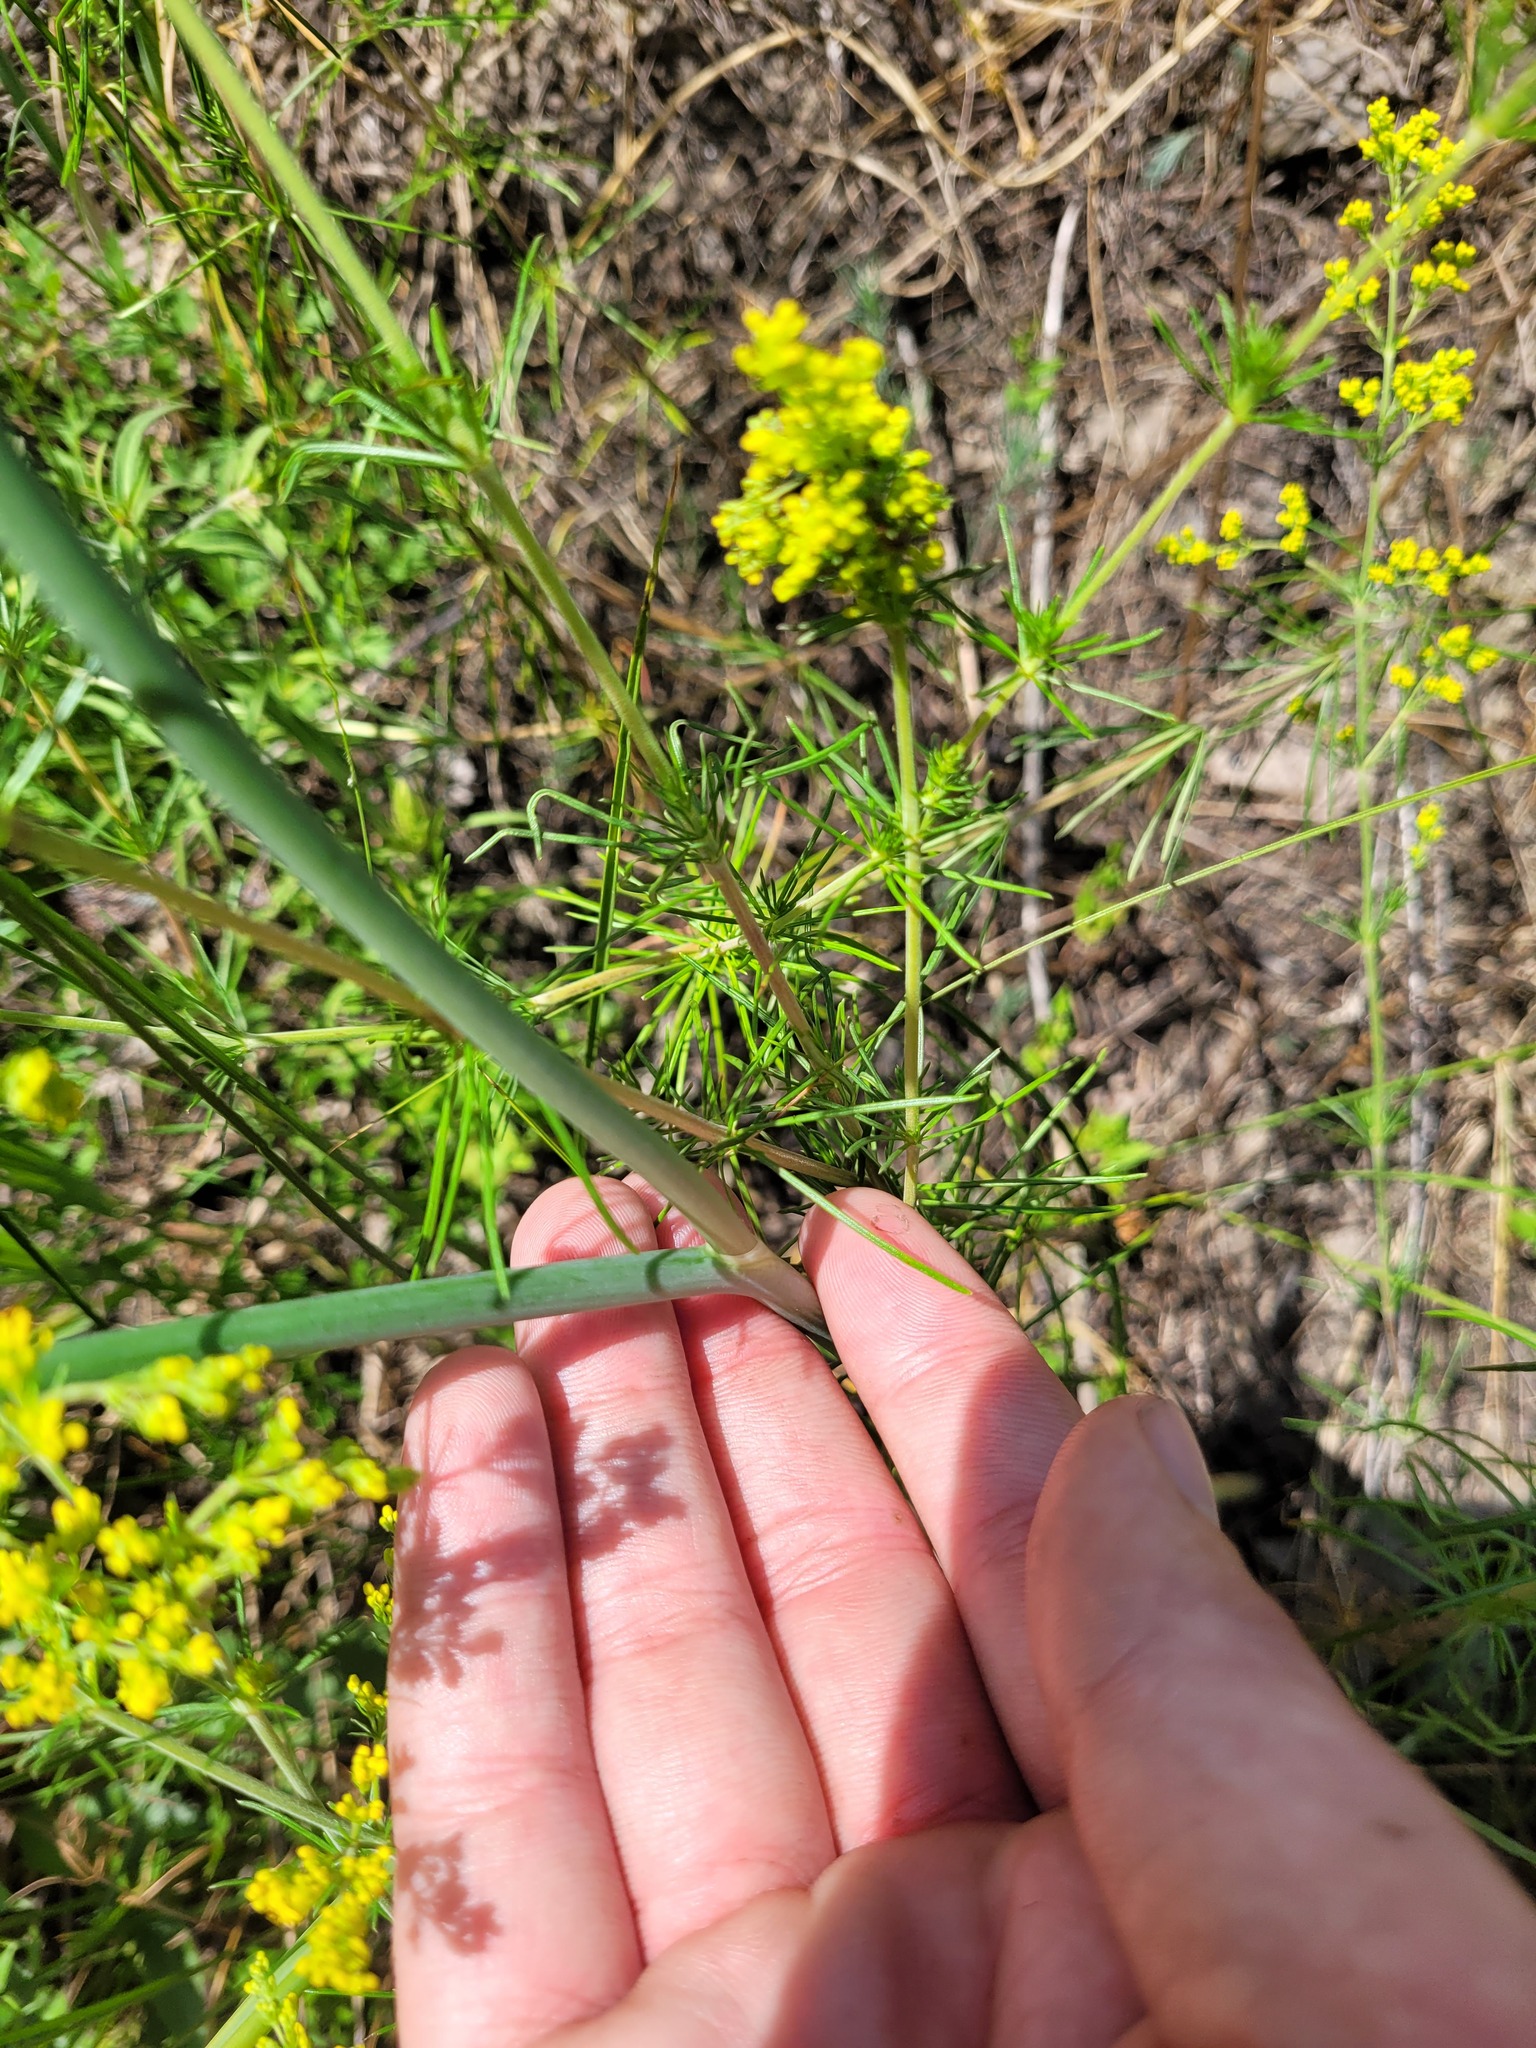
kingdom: Plantae
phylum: Tracheophyta
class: Liliopsida
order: Asparagales
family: Amaryllidaceae
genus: Allium
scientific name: Allium sphaerocephalon
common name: Round-headed leek
